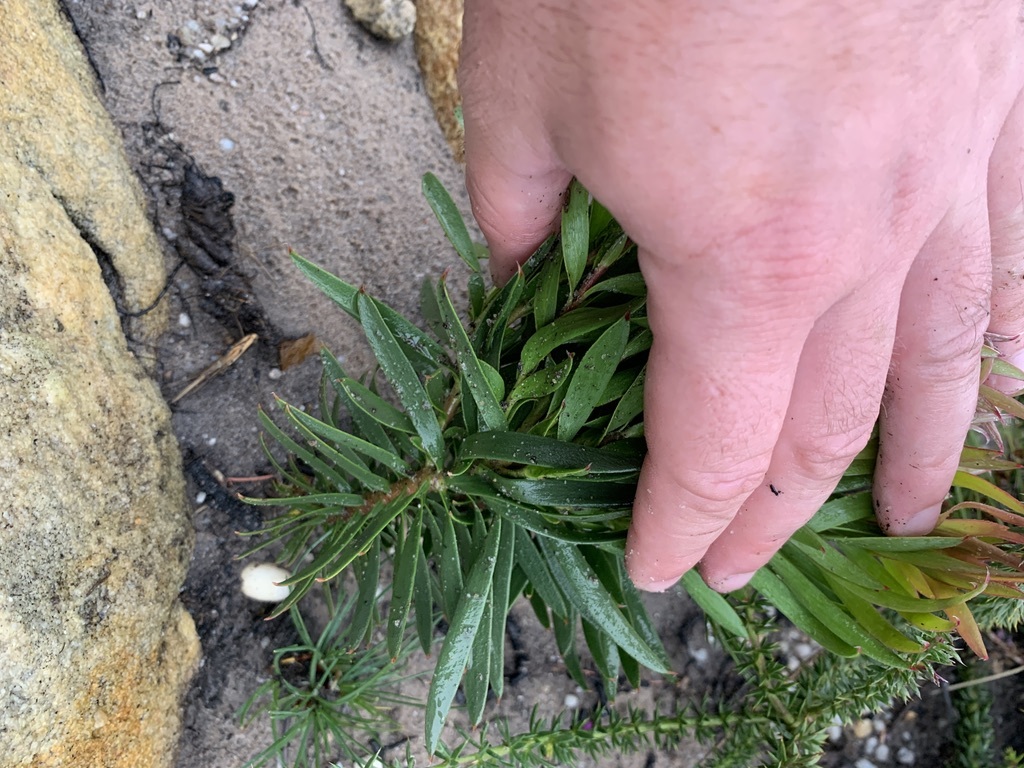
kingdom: Plantae
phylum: Tracheophyta
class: Magnoliopsida
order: Proteales
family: Proteaceae
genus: Leucadendron
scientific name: Leucadendron xanthoconus
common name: Sickle-leaf conebush
